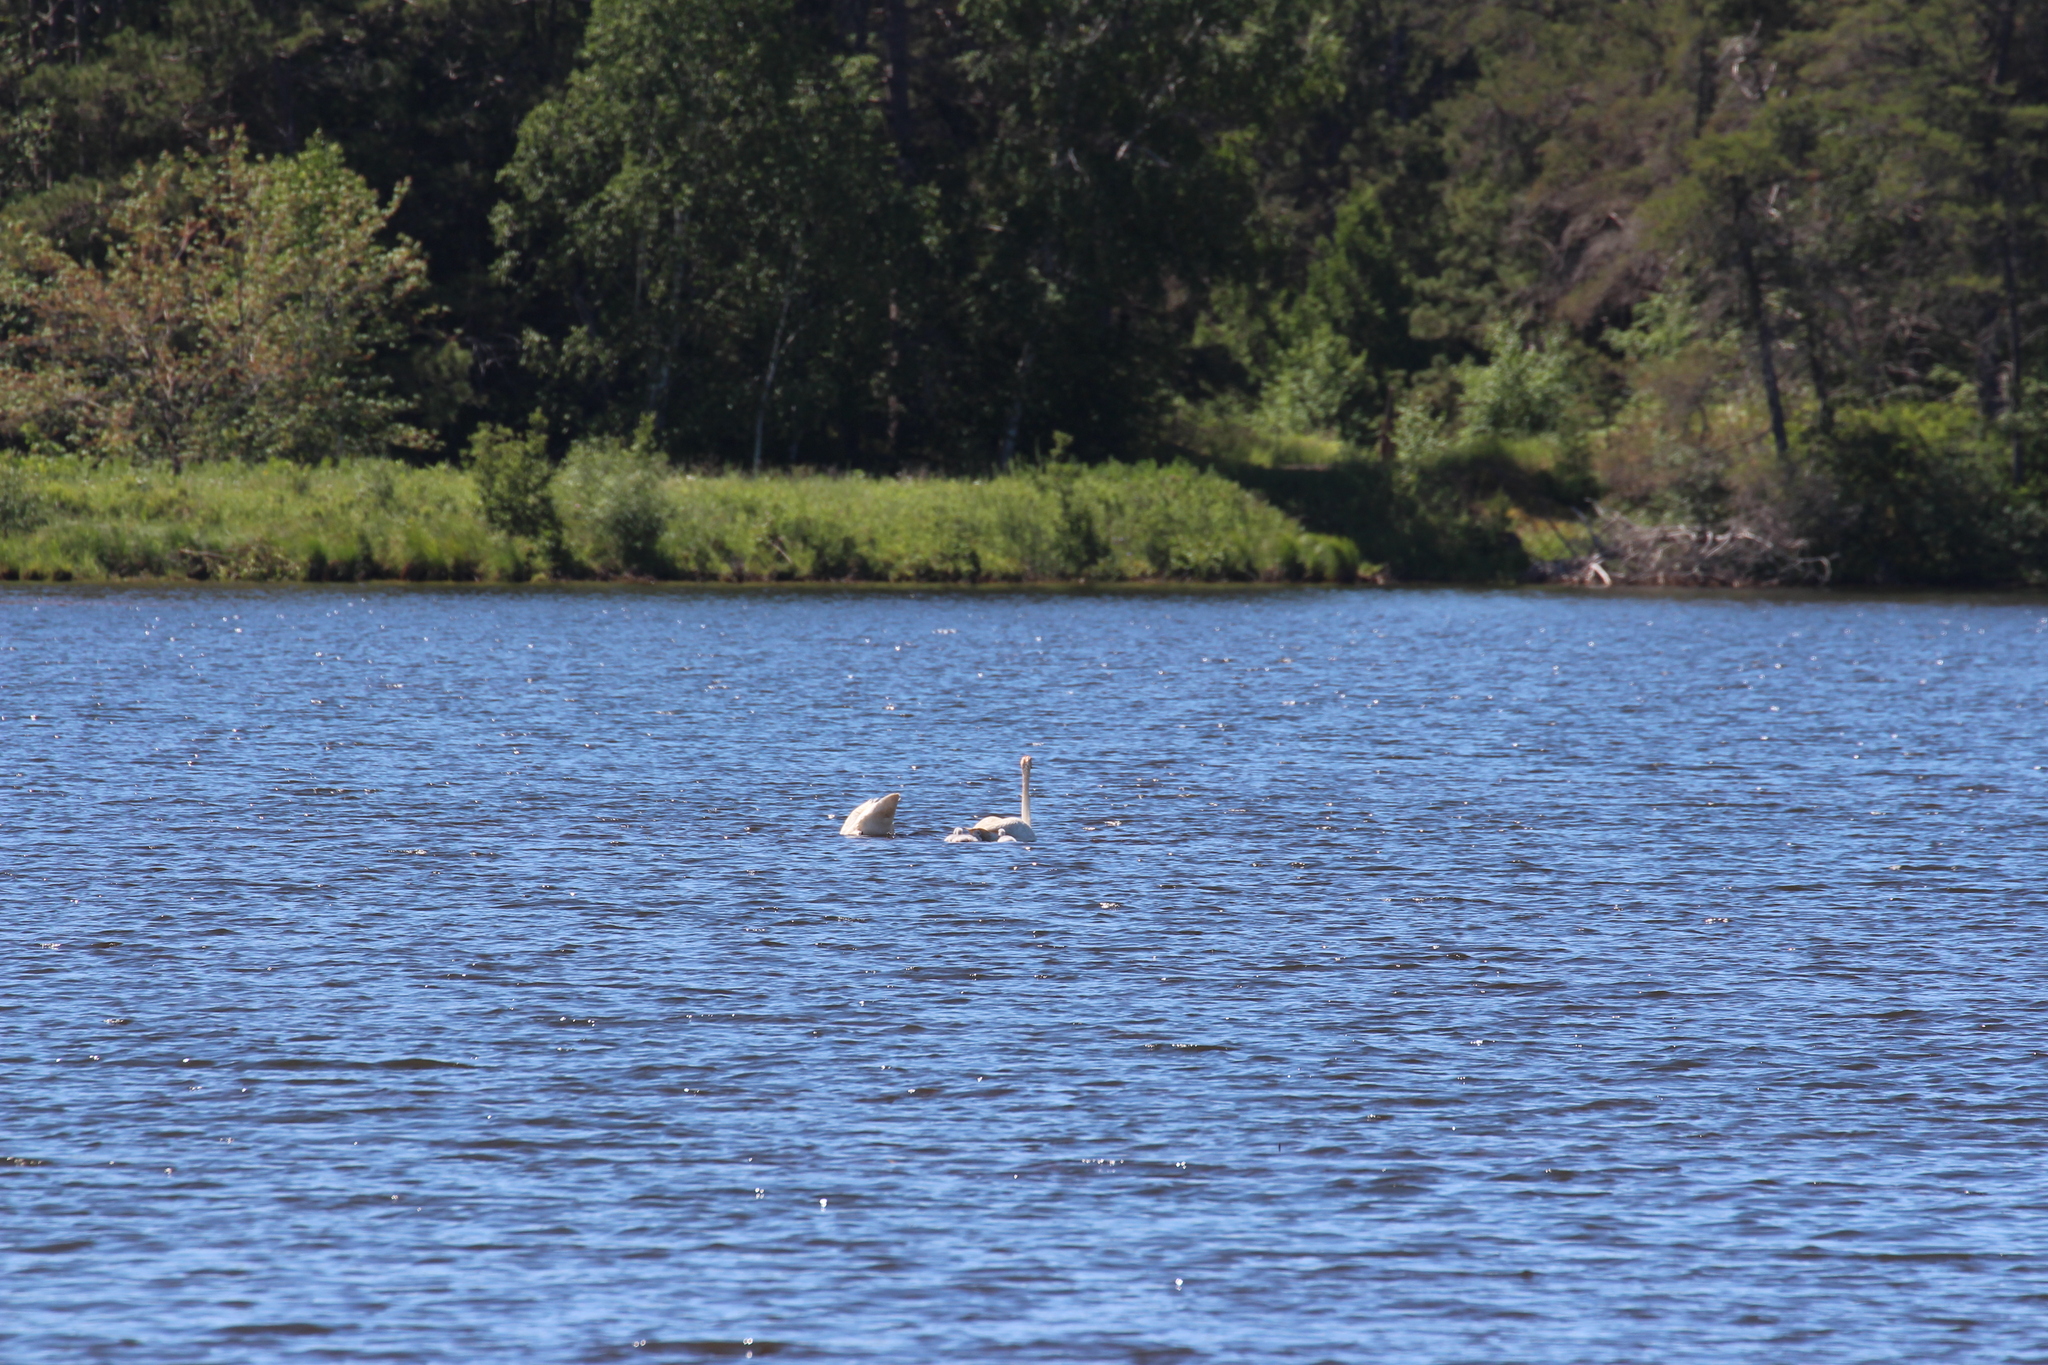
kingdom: Animalia
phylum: Chordata
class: Aves
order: Anseriformes
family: Anatidae
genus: Cygnus
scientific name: Cygnus buccinator
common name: Trumpeter swan
